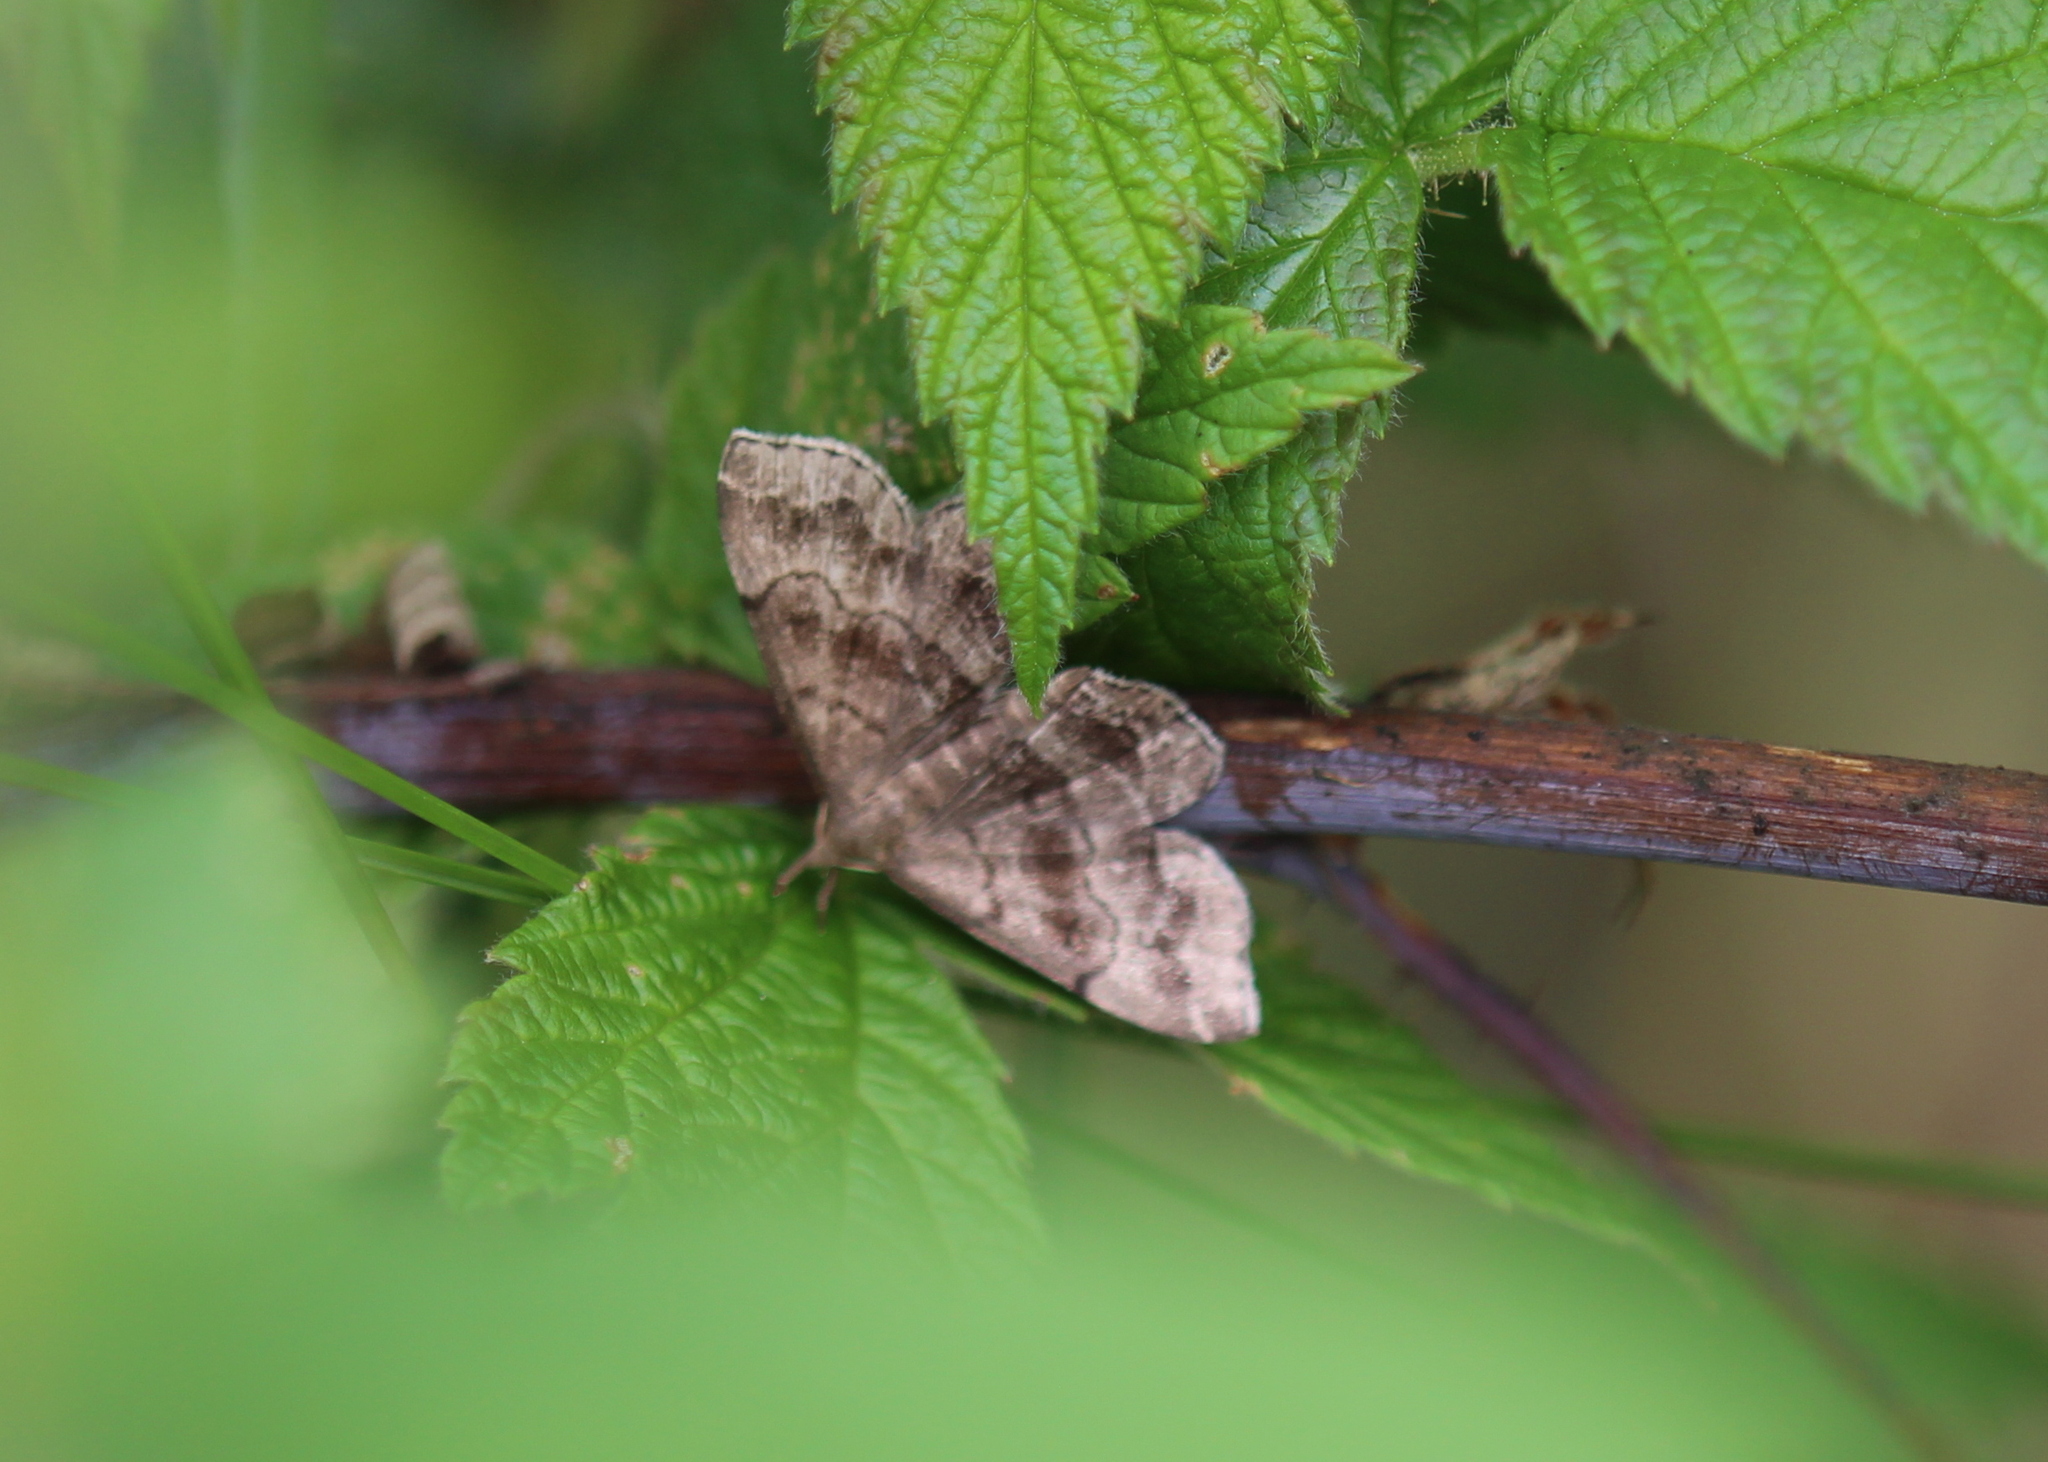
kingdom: Animalia
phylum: Arthropoda
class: Insecta
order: Lepidoptera
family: Erebidae
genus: Phalaenostola
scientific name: Phalaenostola larentioides
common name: Black-banded owlet
